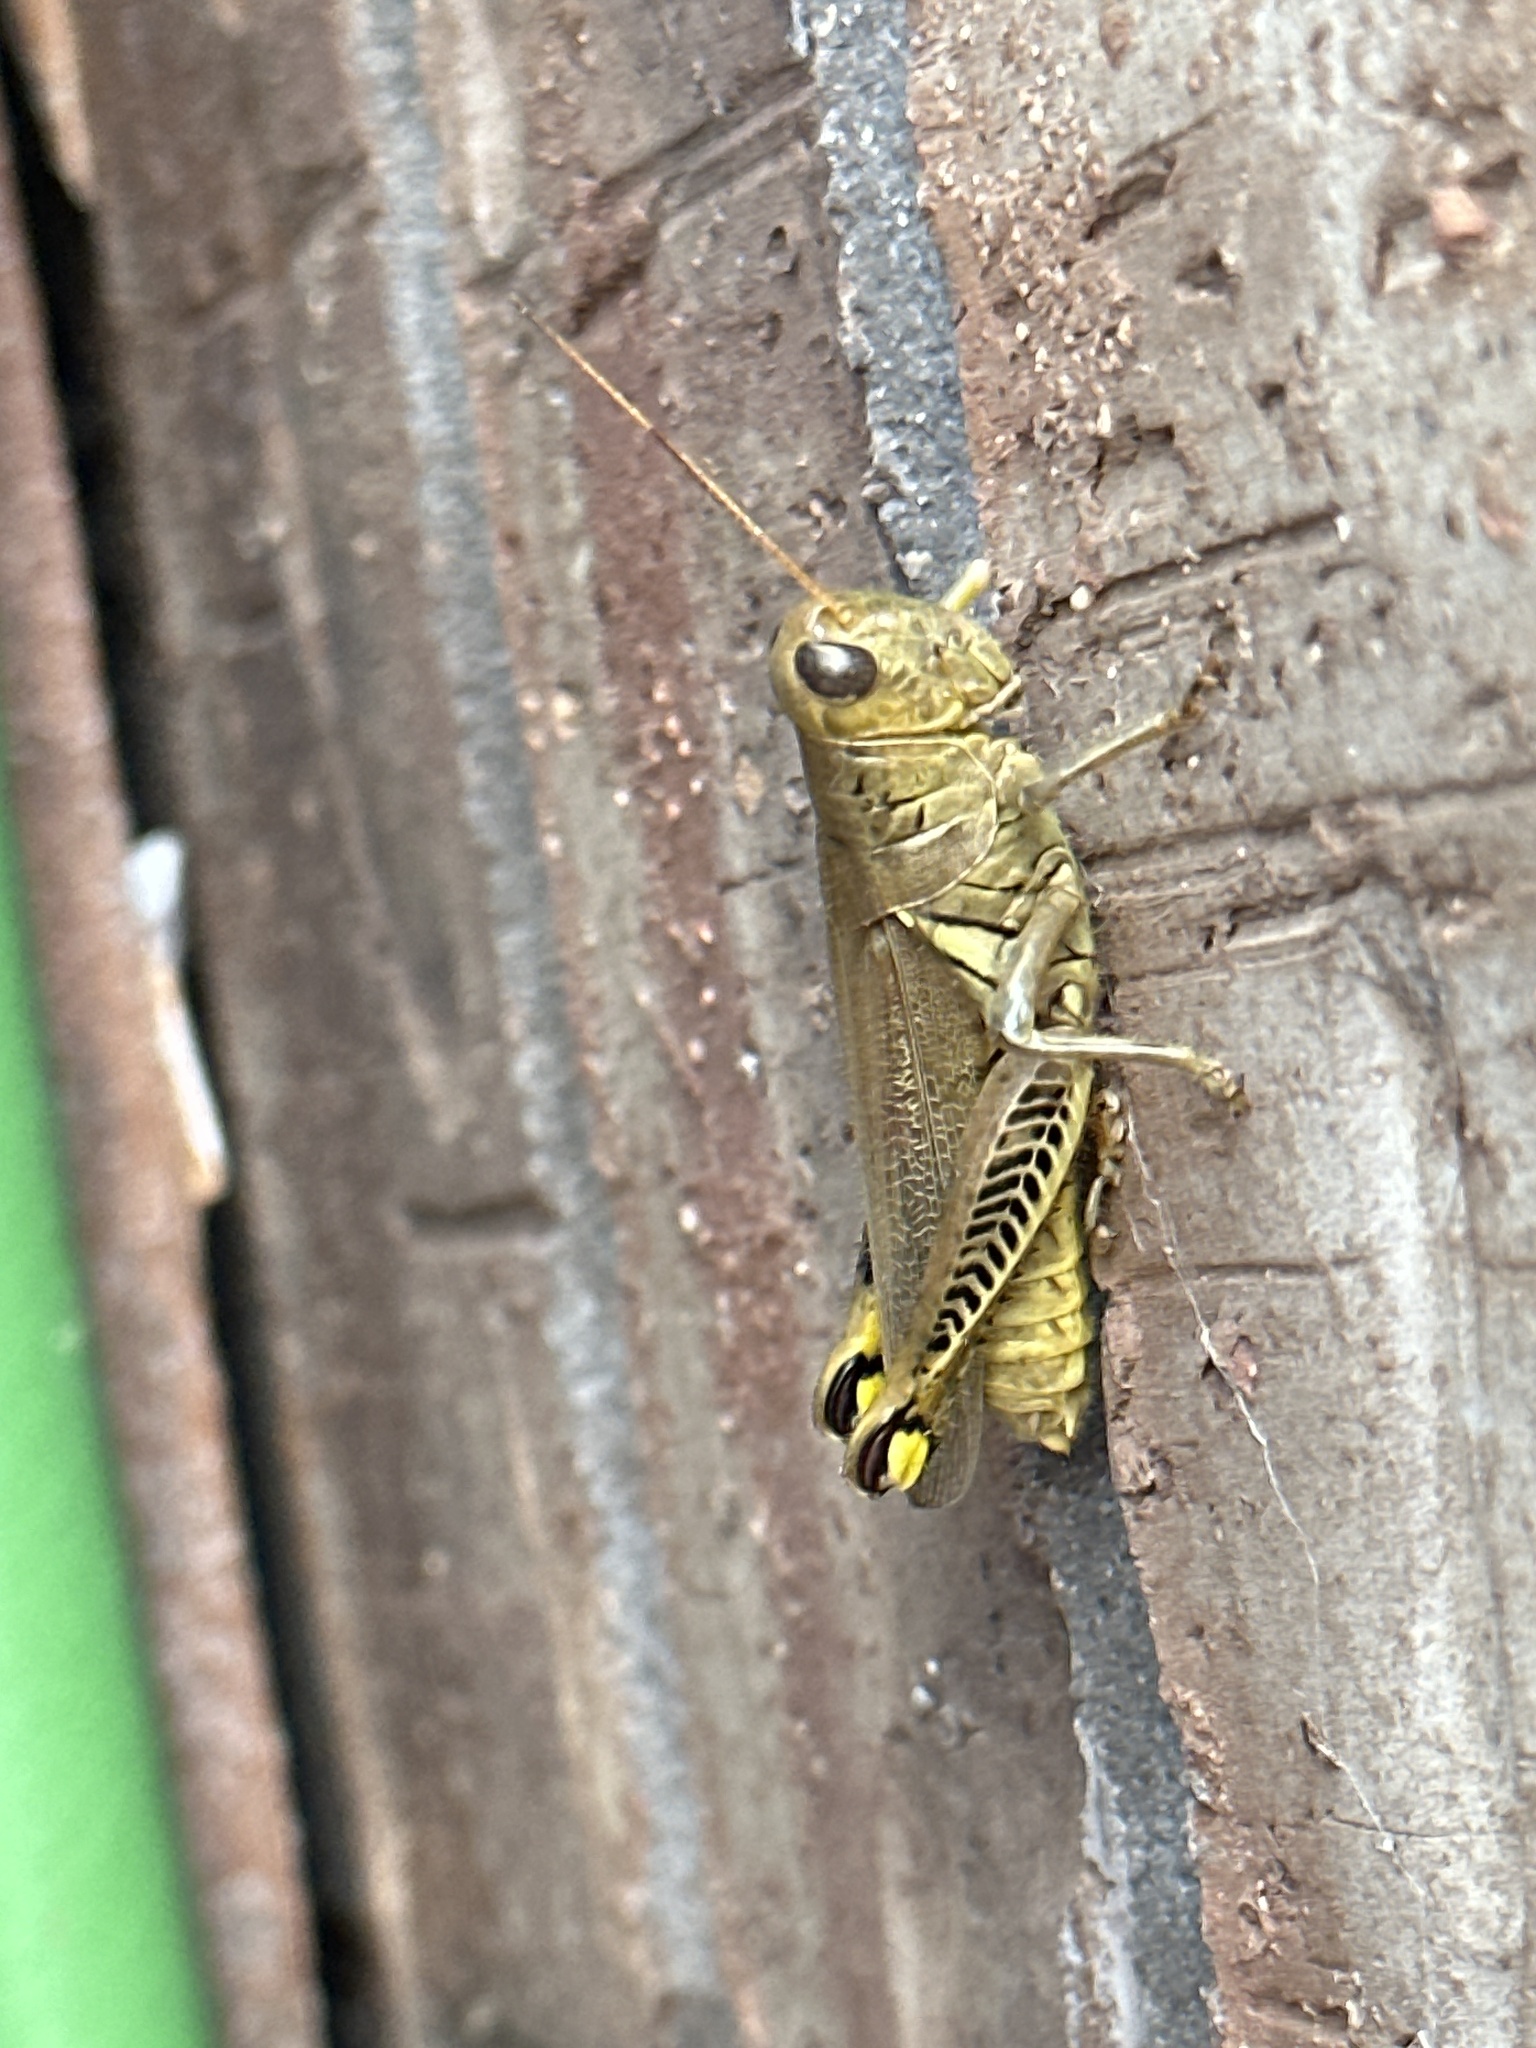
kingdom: Animalia
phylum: Arthropoda
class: Insecta
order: Orthoptera
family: Acrididae
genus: Melanoplus
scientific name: Melanoplus differentialis
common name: Differential grasshopper
